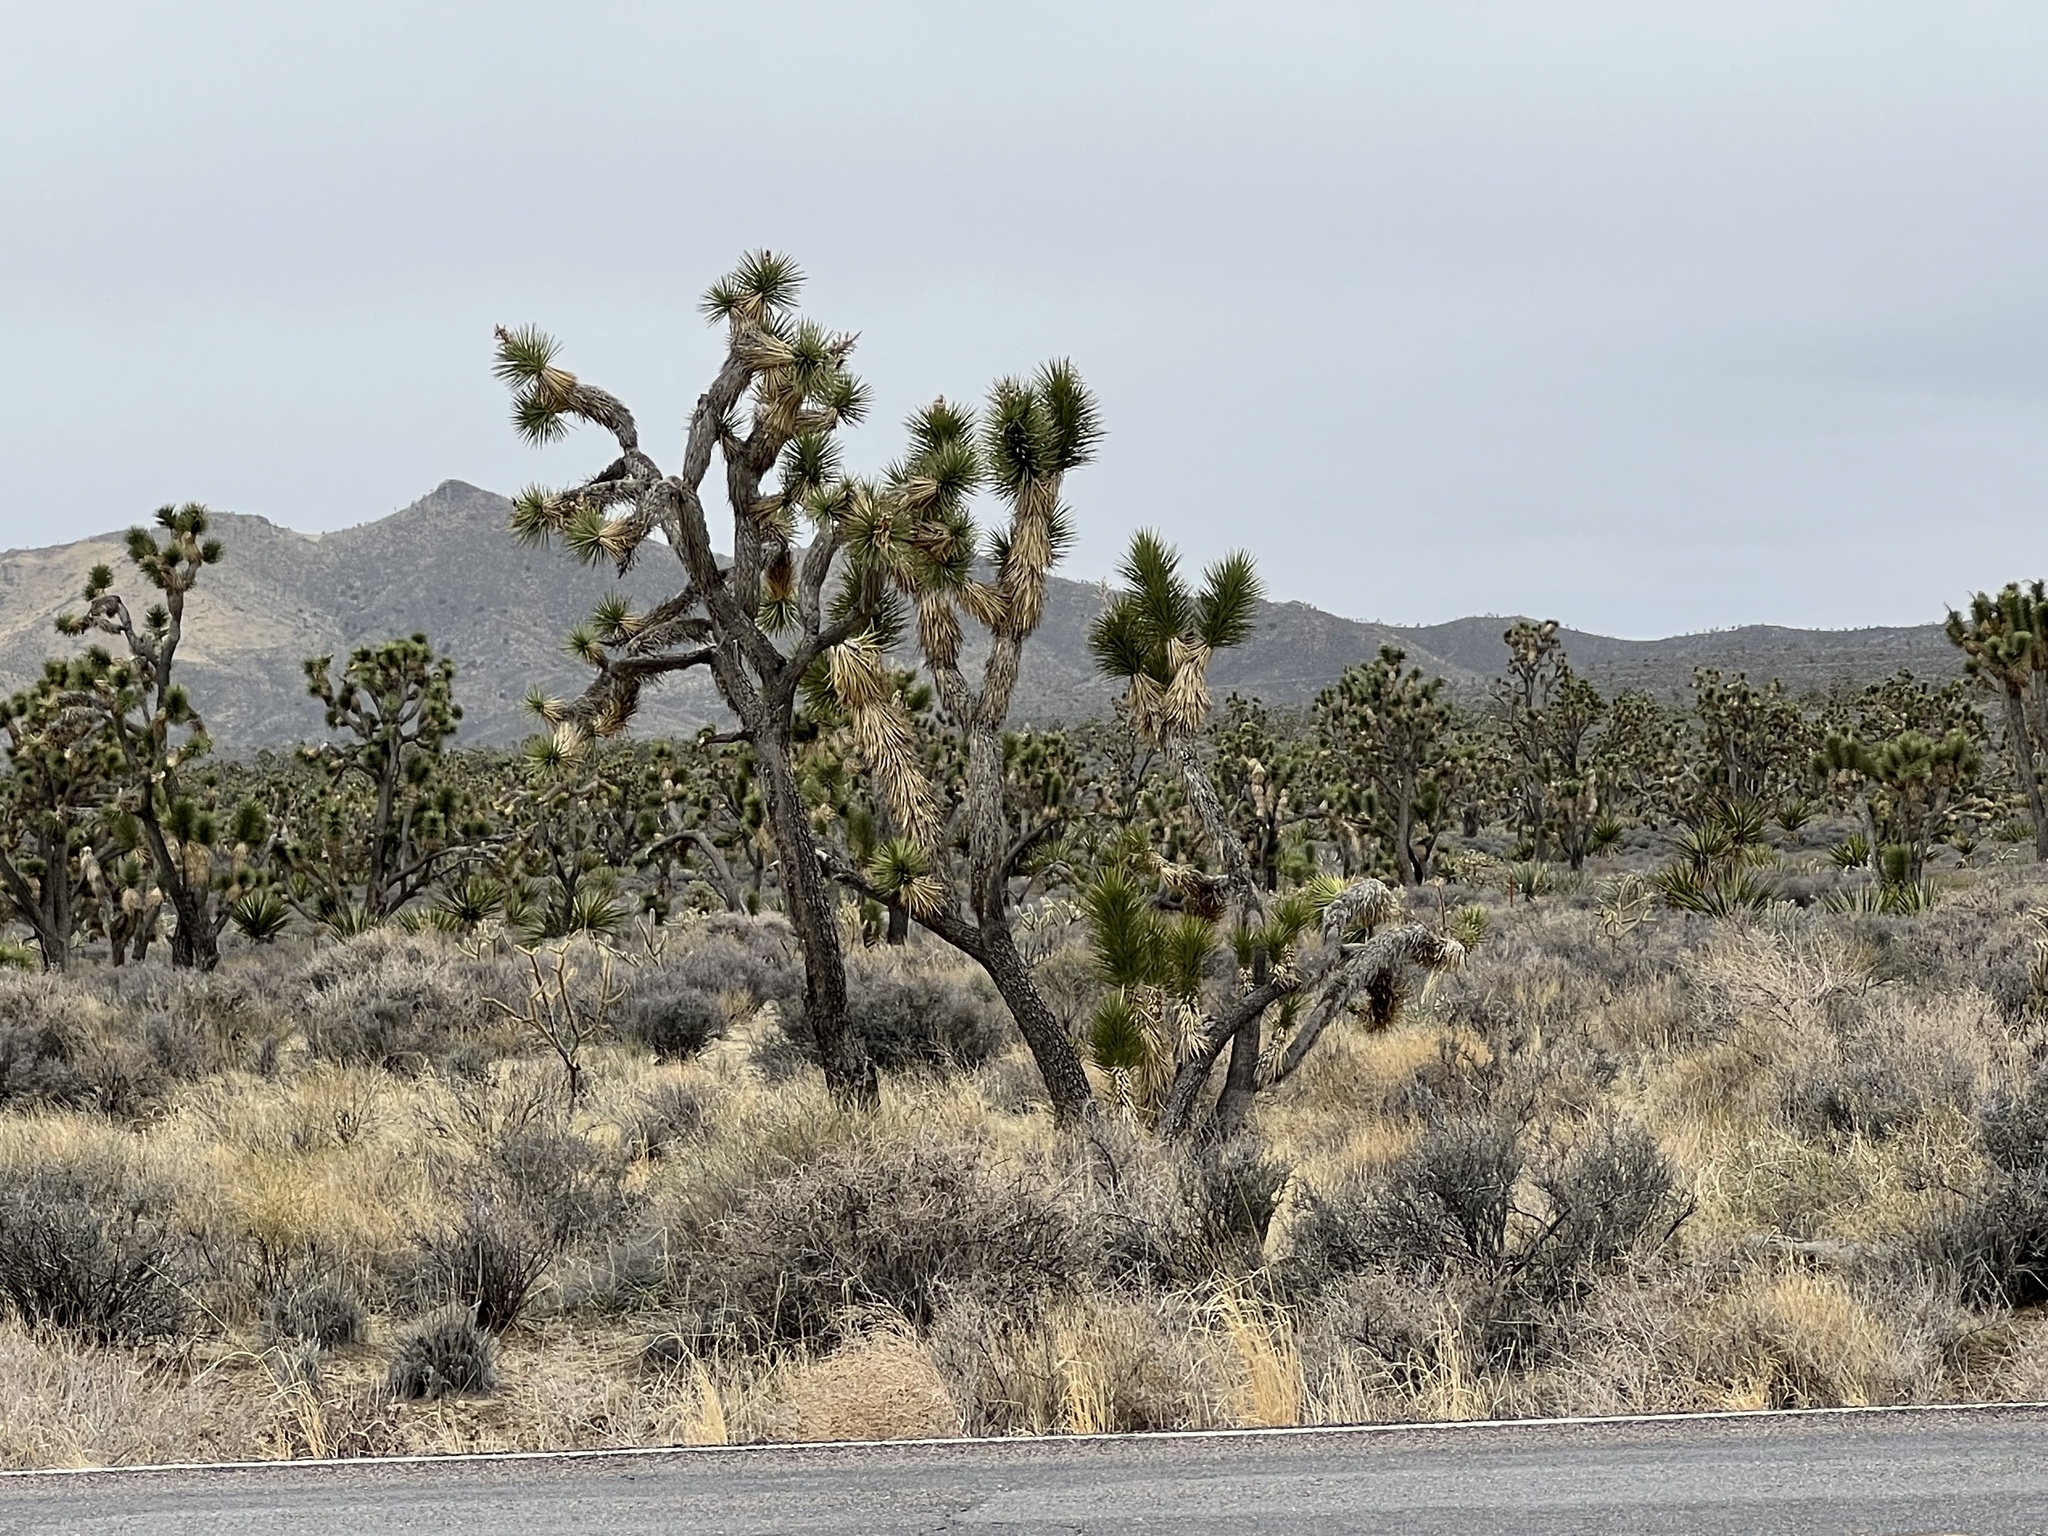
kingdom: Plantae
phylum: Tracheophyta
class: Liliopsida
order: Asparagales
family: Asparagaceae
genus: Yucca
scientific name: Yucca brevifolia
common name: Joshua tree
